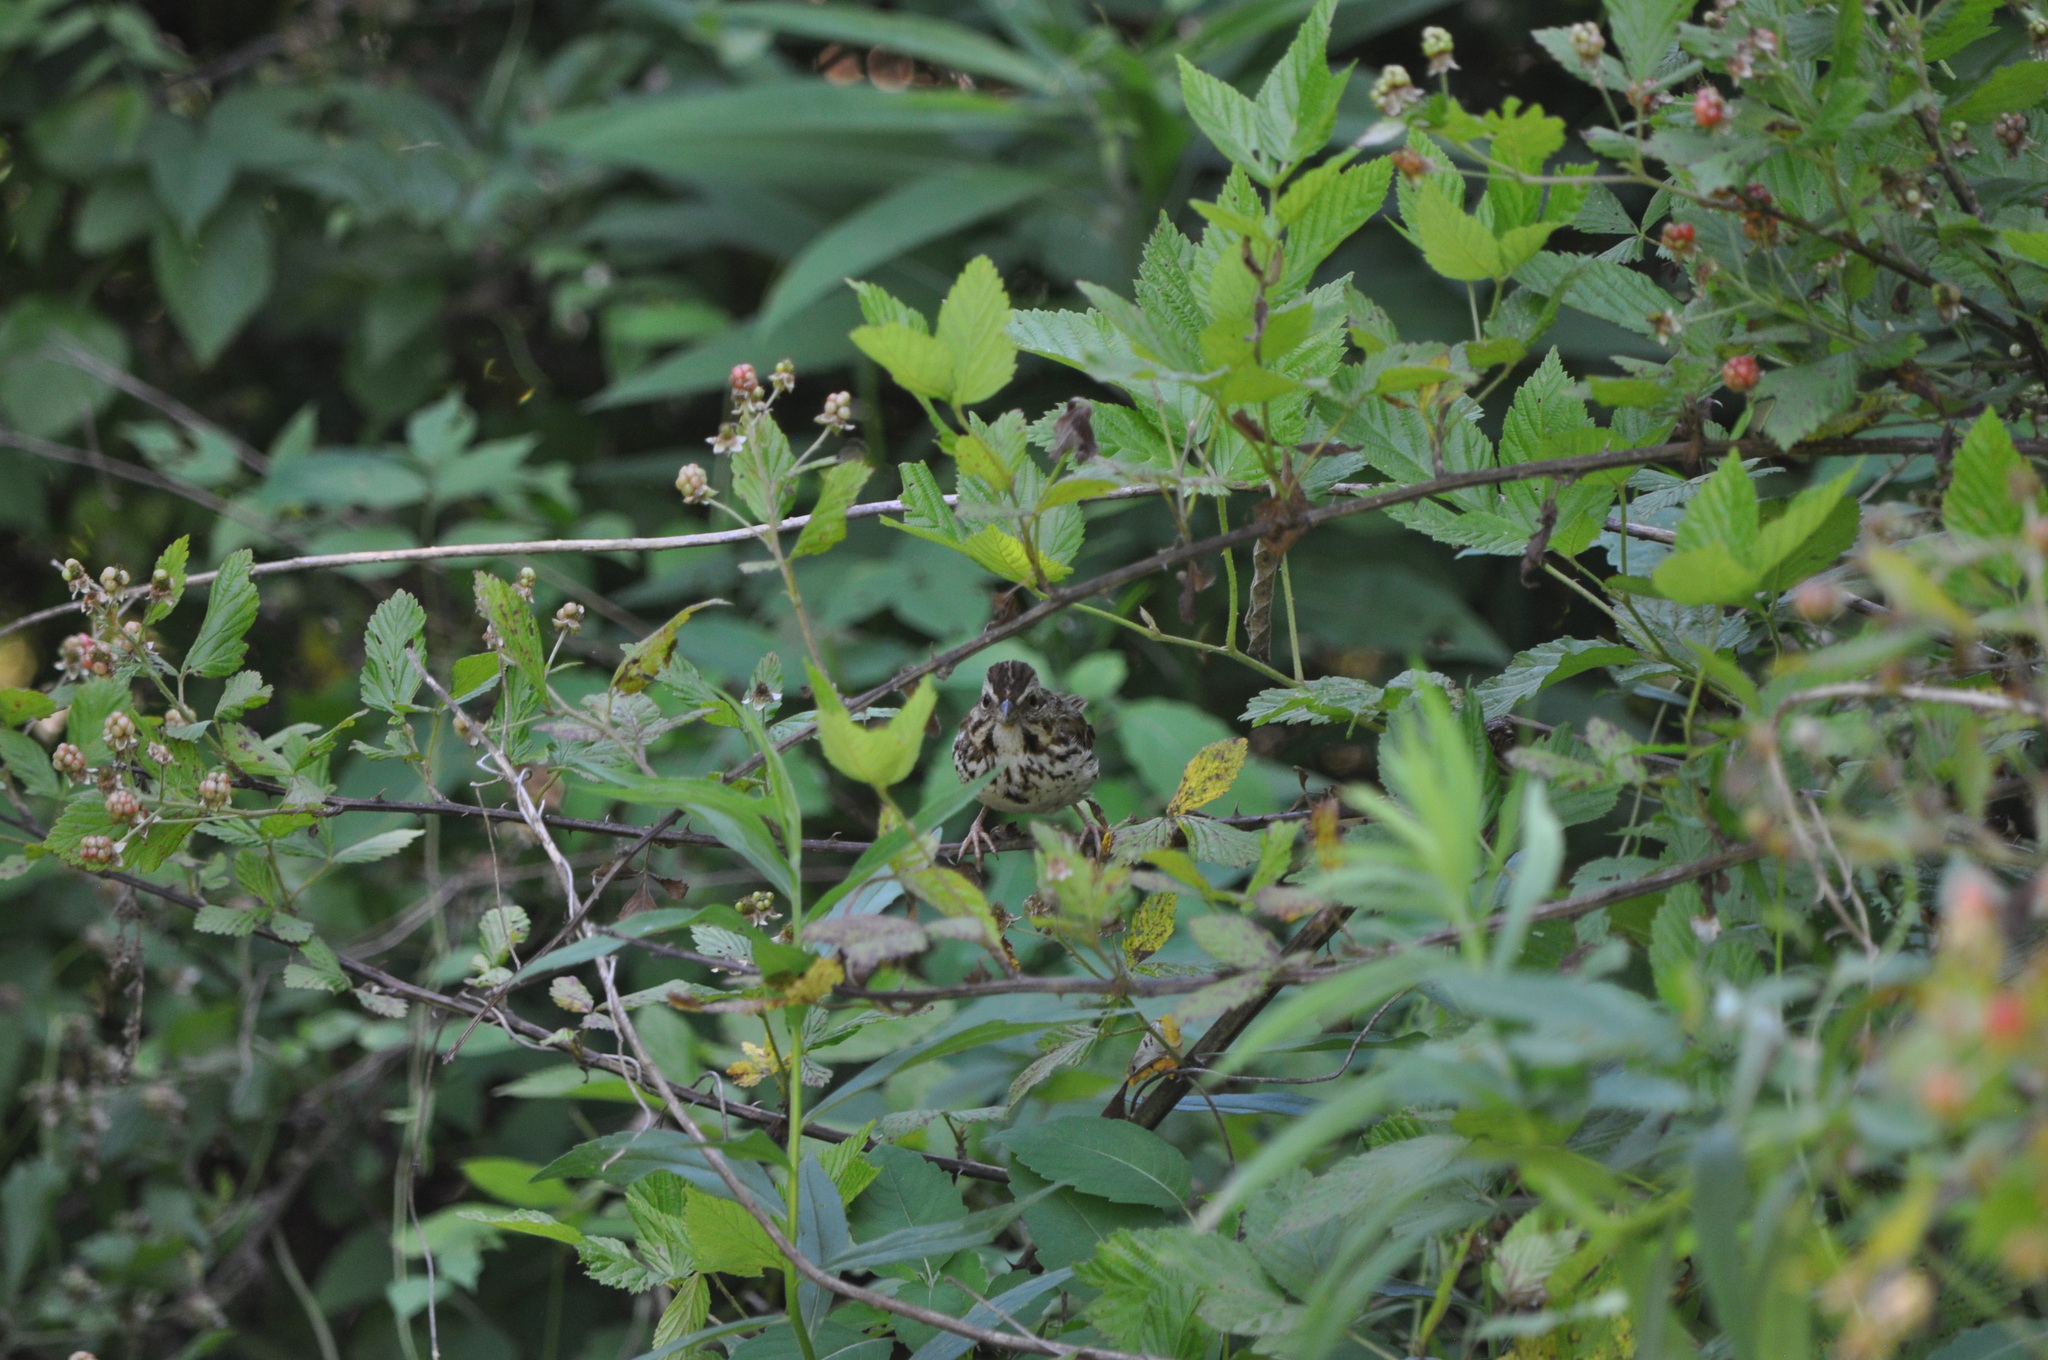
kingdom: Animalia
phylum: Chordata
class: Aves
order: Passeriformes
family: Passerellidae
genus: Melospiza
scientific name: Melospiza melodia
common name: Song sparrow
